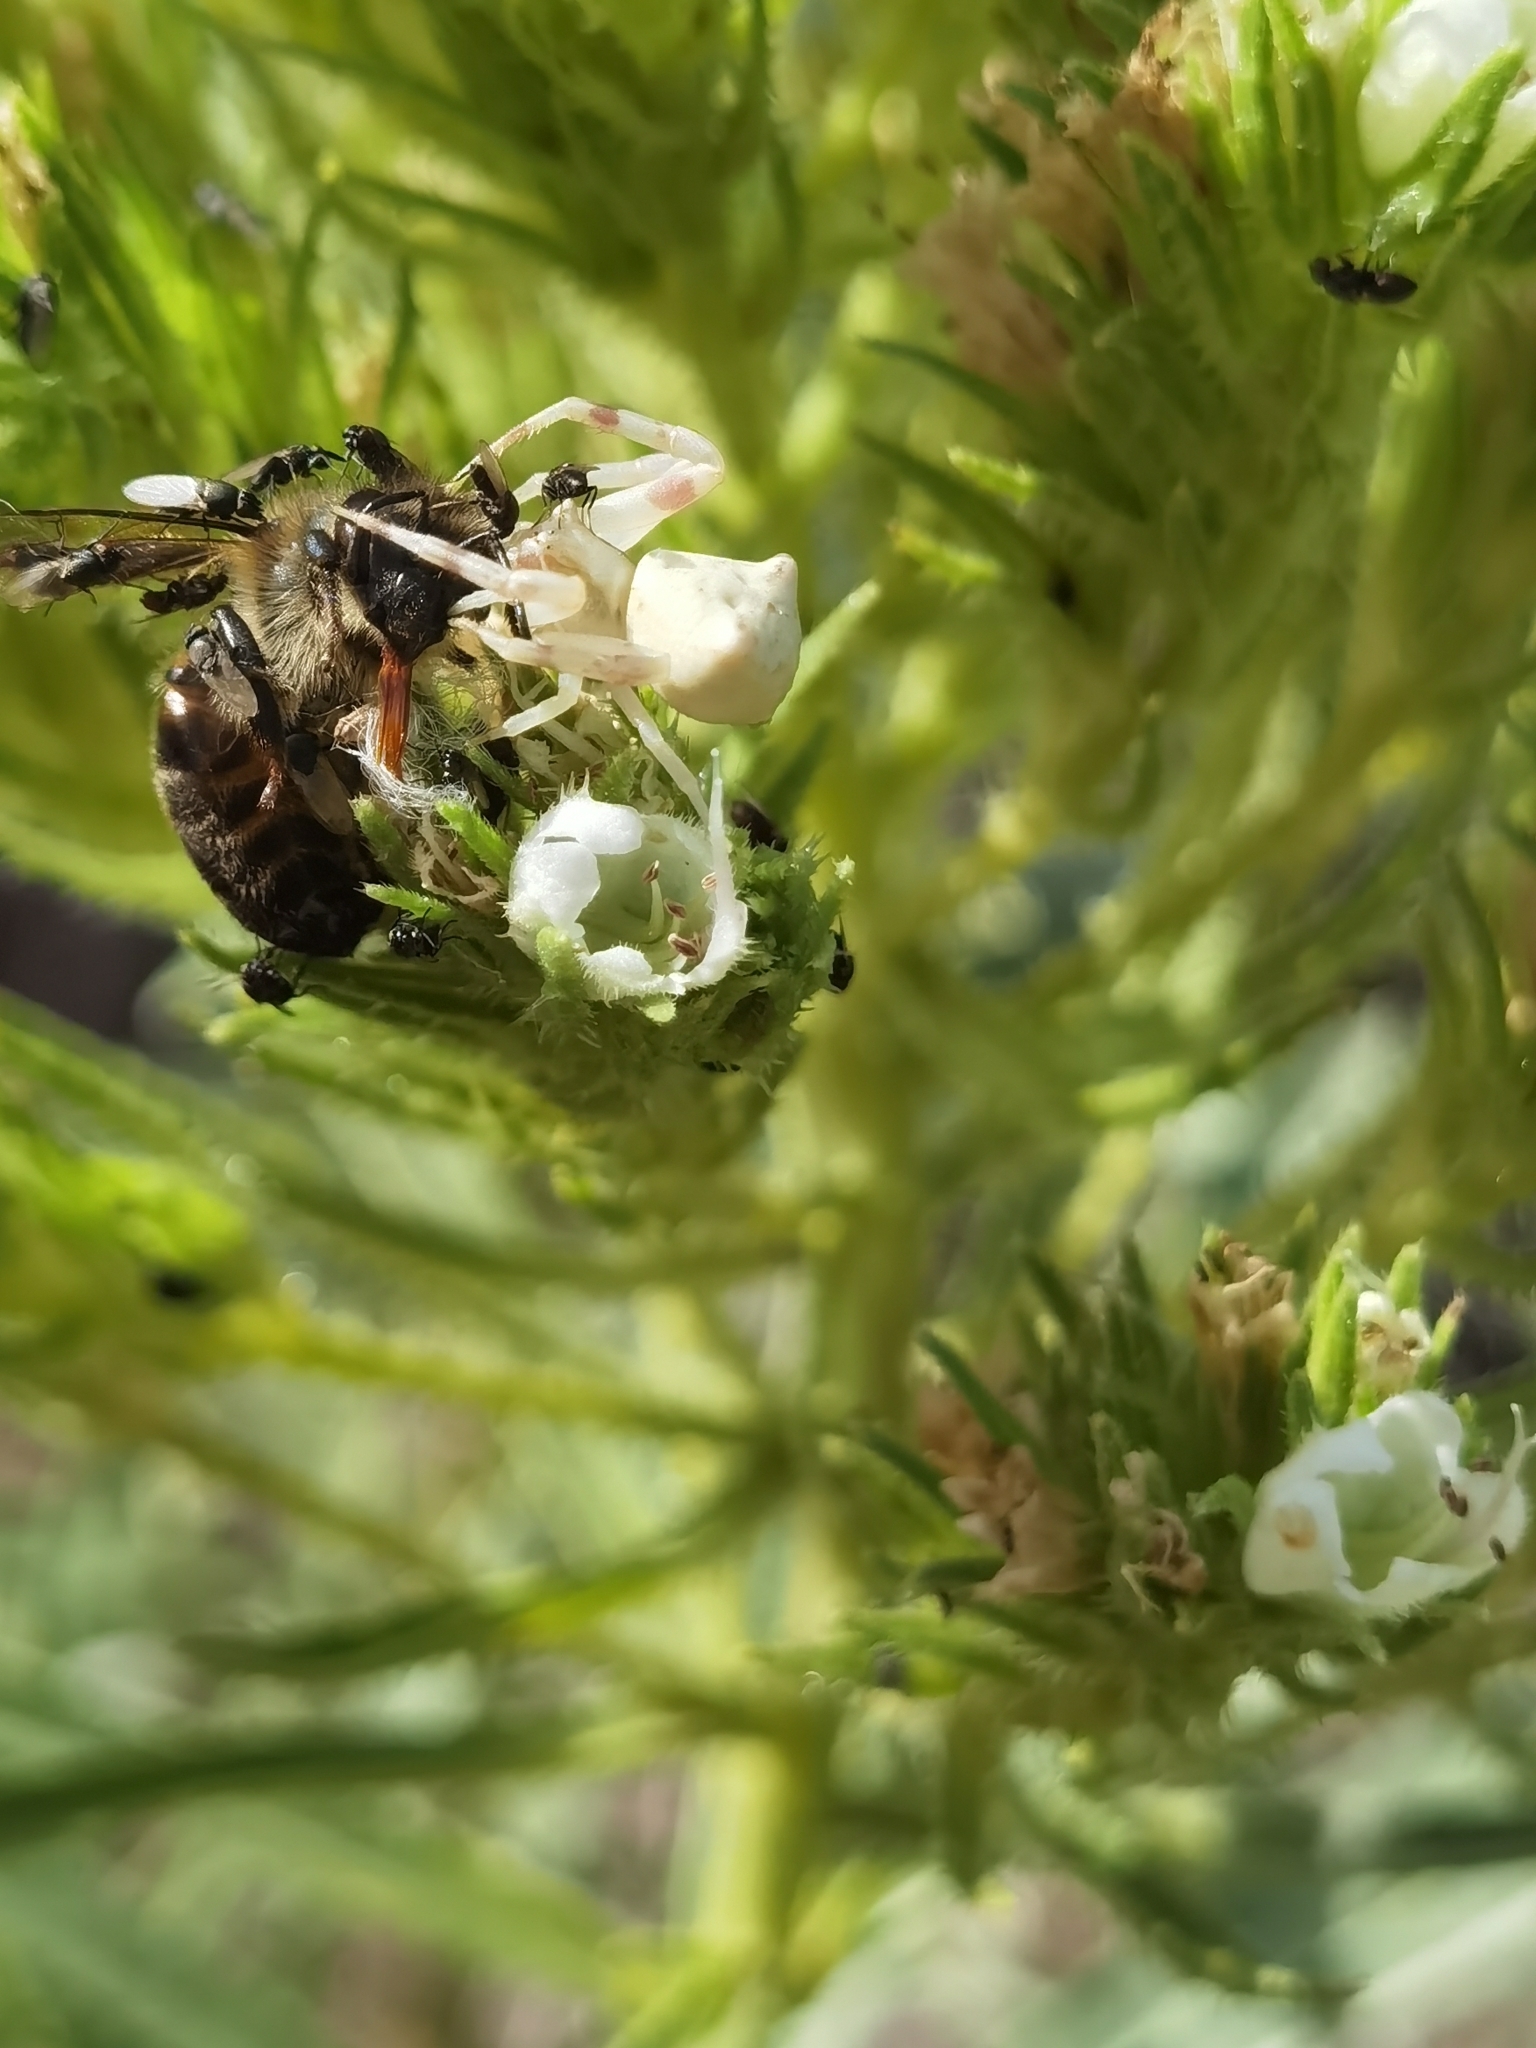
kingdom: Animalia
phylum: Arthropoda
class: Arachnida
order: Araneae
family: Thomisidae
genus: Thomisus
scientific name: Thomisus onustus
